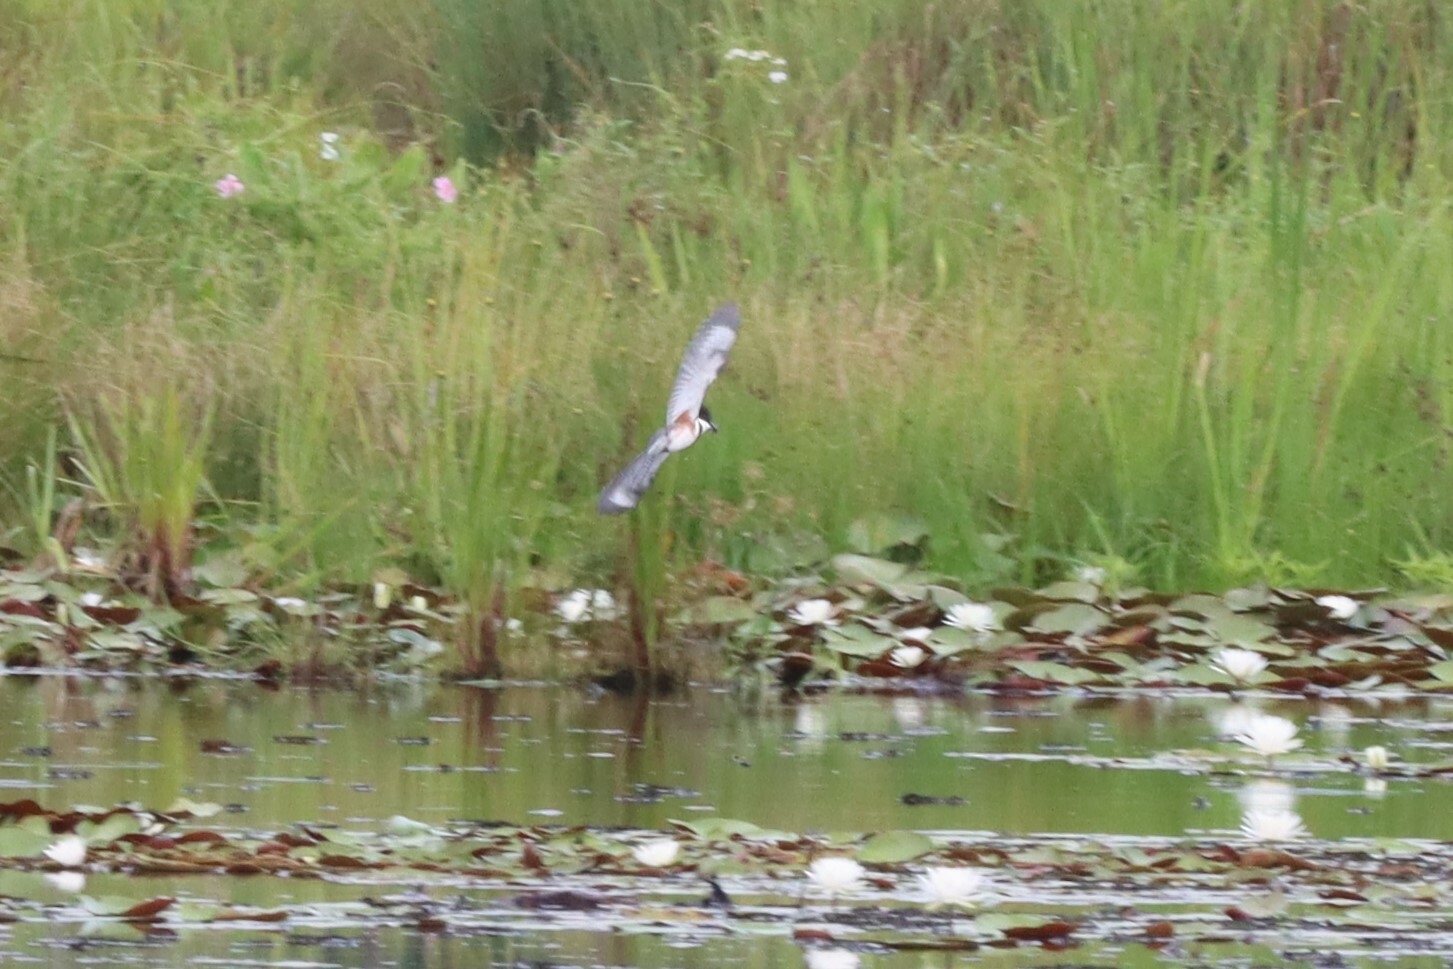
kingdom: Animalia
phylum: Chordata
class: Aves
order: Coraciiformes
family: Alcedinidae
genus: Megaceryle
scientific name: Megaceryle alcyon
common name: Belted kingfisher
